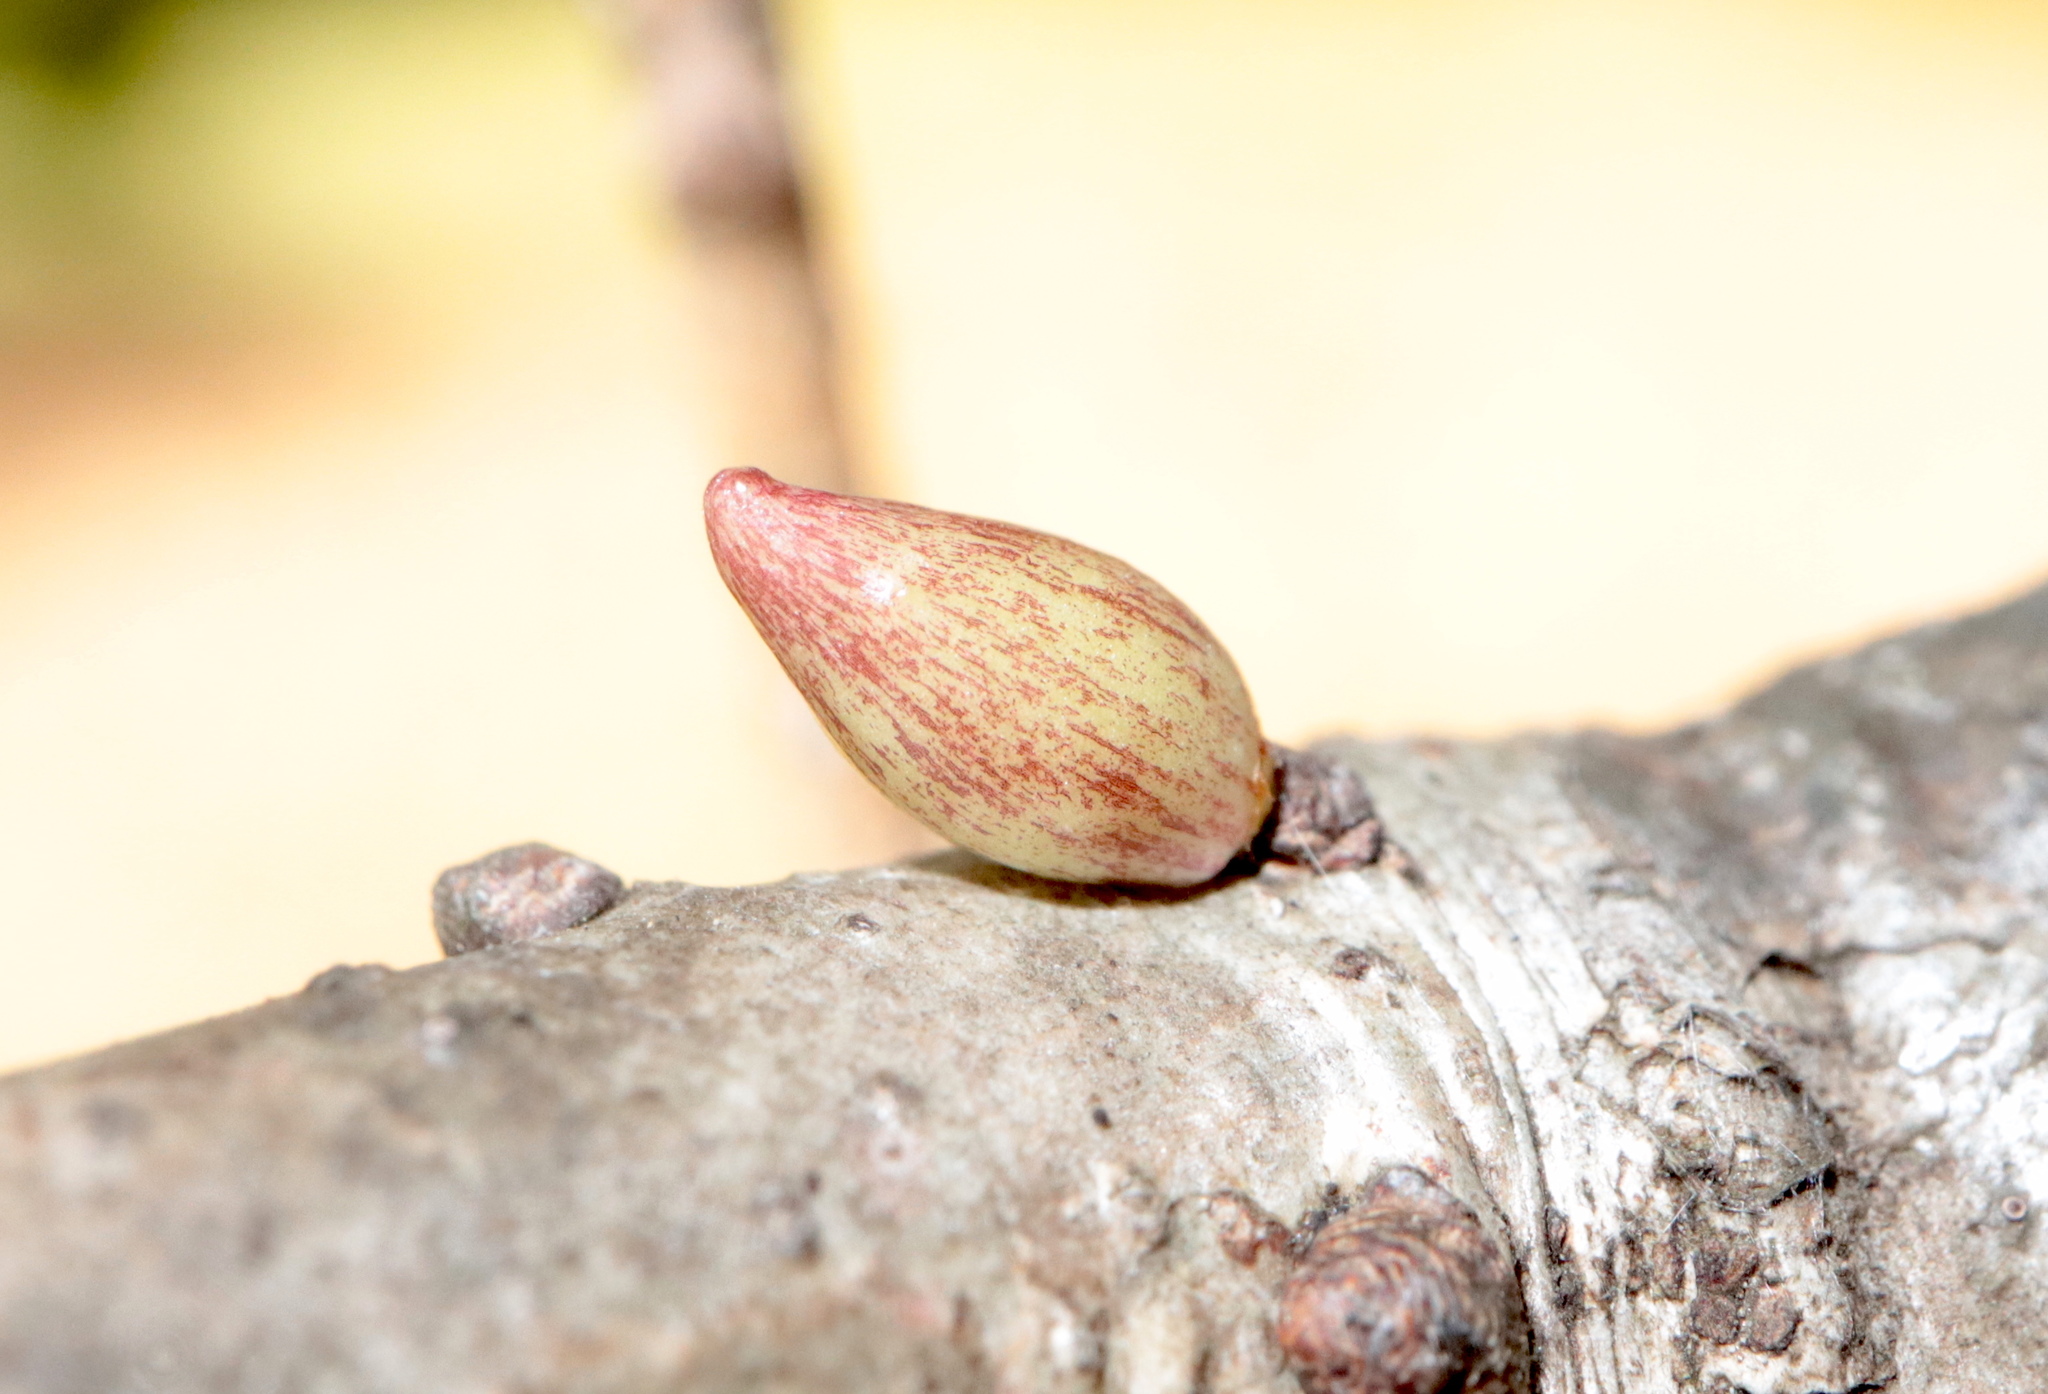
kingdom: Animalia
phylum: Arthropoda
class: Insecta
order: Hymenoptera
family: Cynipidae
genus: Andricus
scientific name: Andricus
